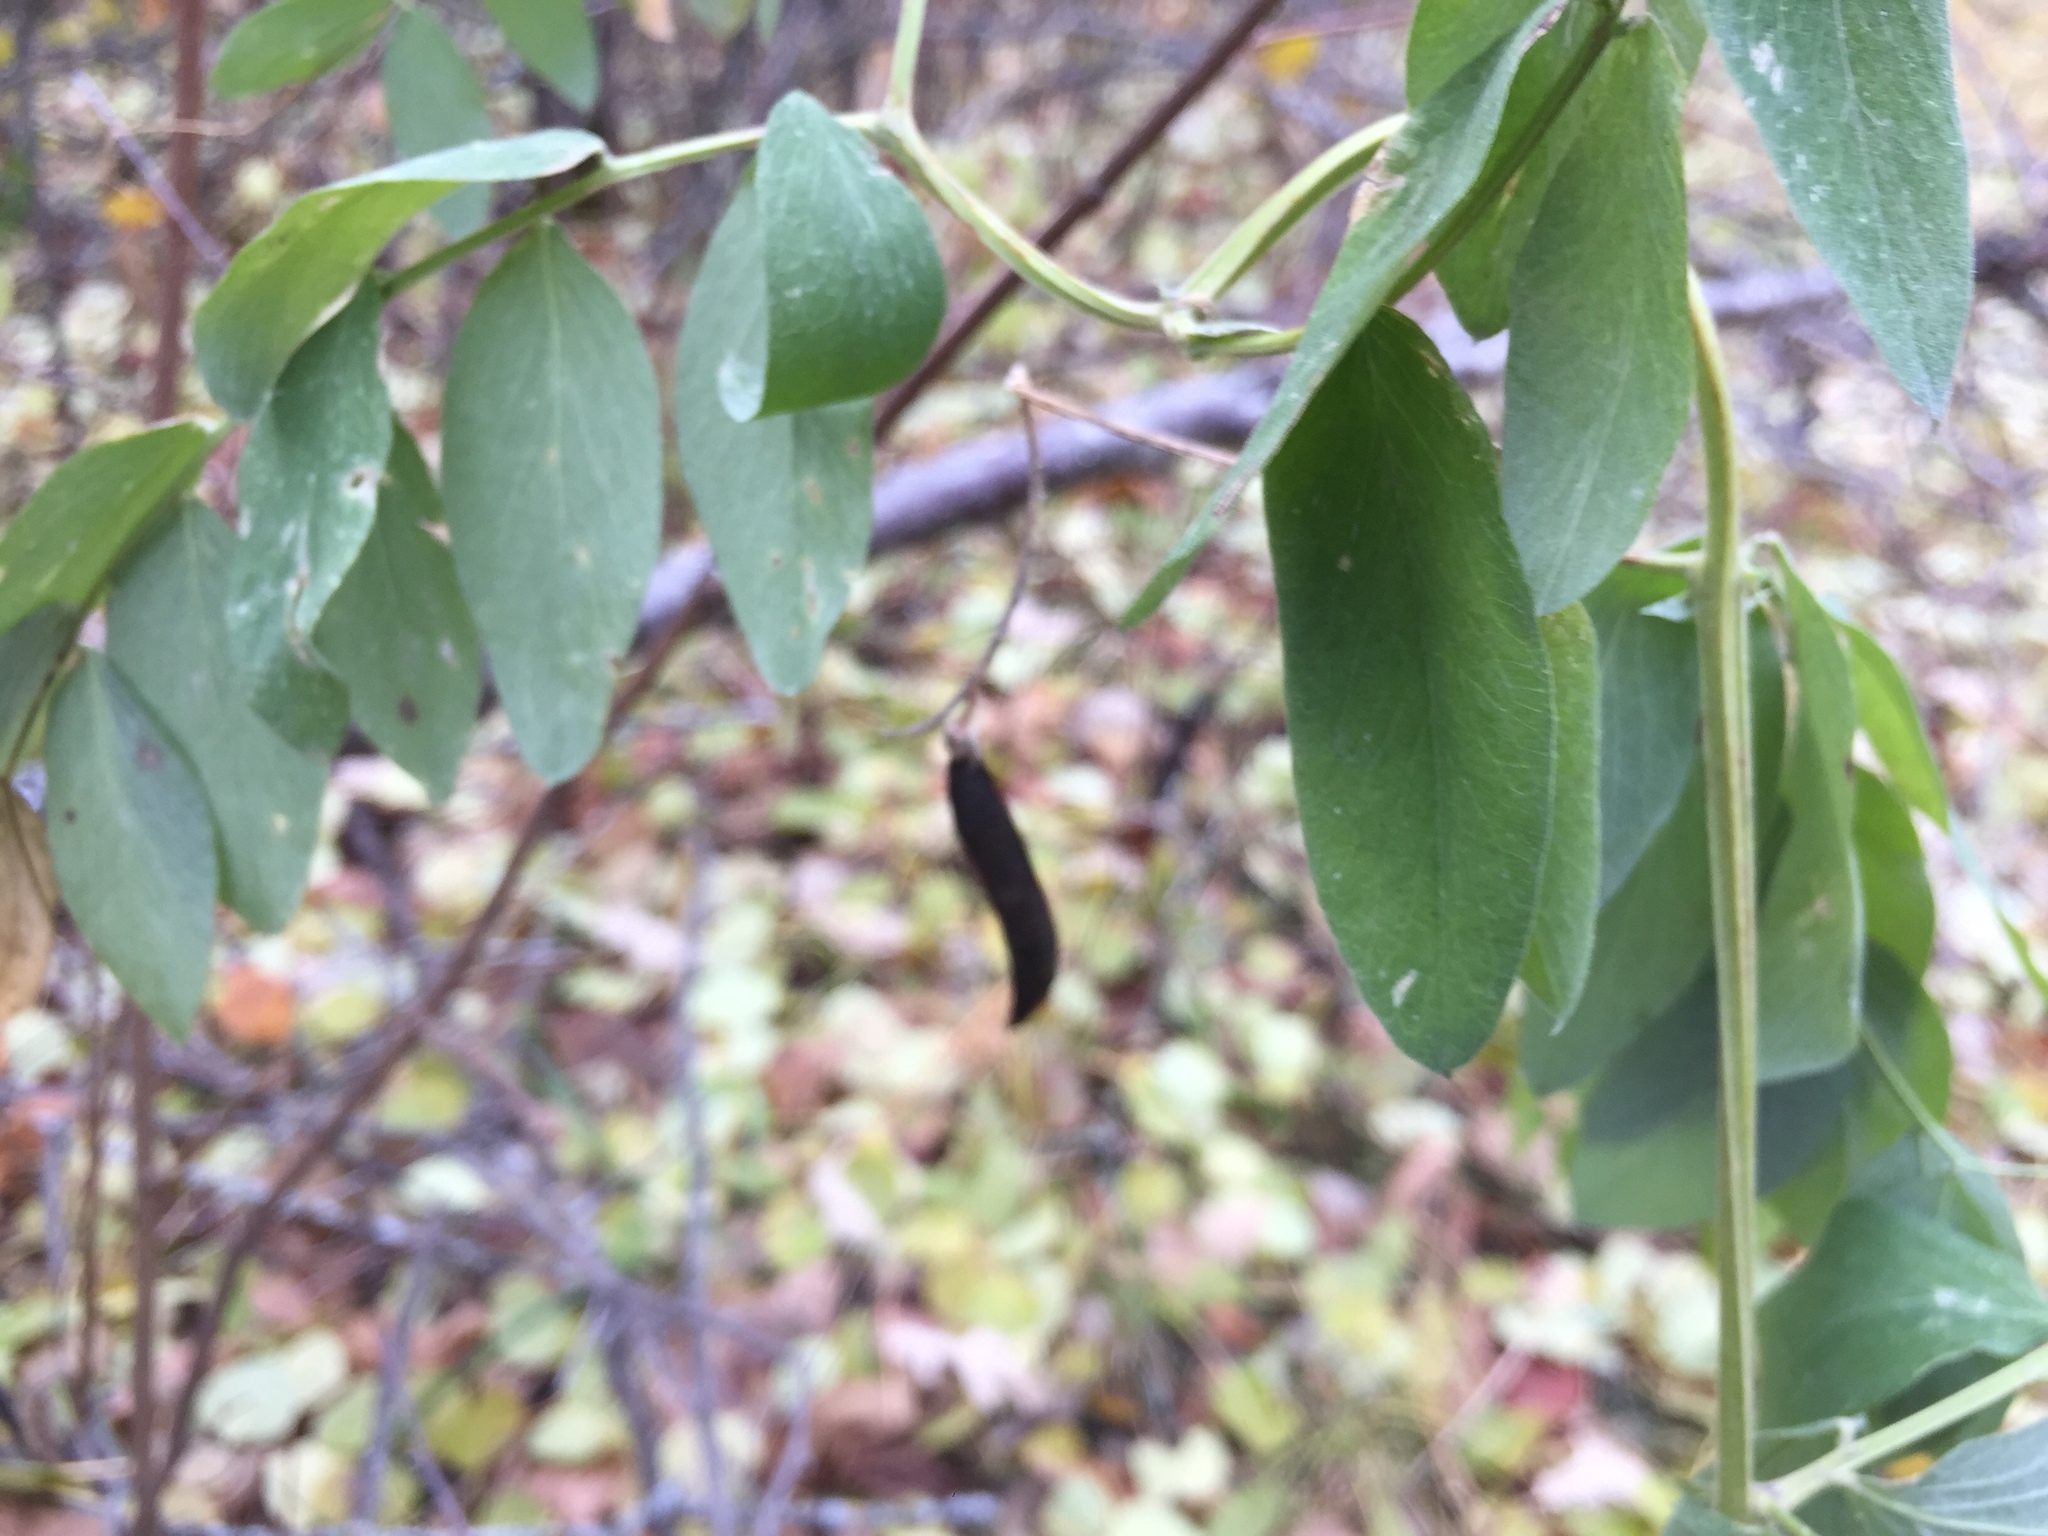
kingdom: Plantae
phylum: Tracheophyta
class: Magnoliopsida
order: Fabales
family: Fabaceae
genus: Lathyrus
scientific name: Lathyrus venosus
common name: Forest-pea
